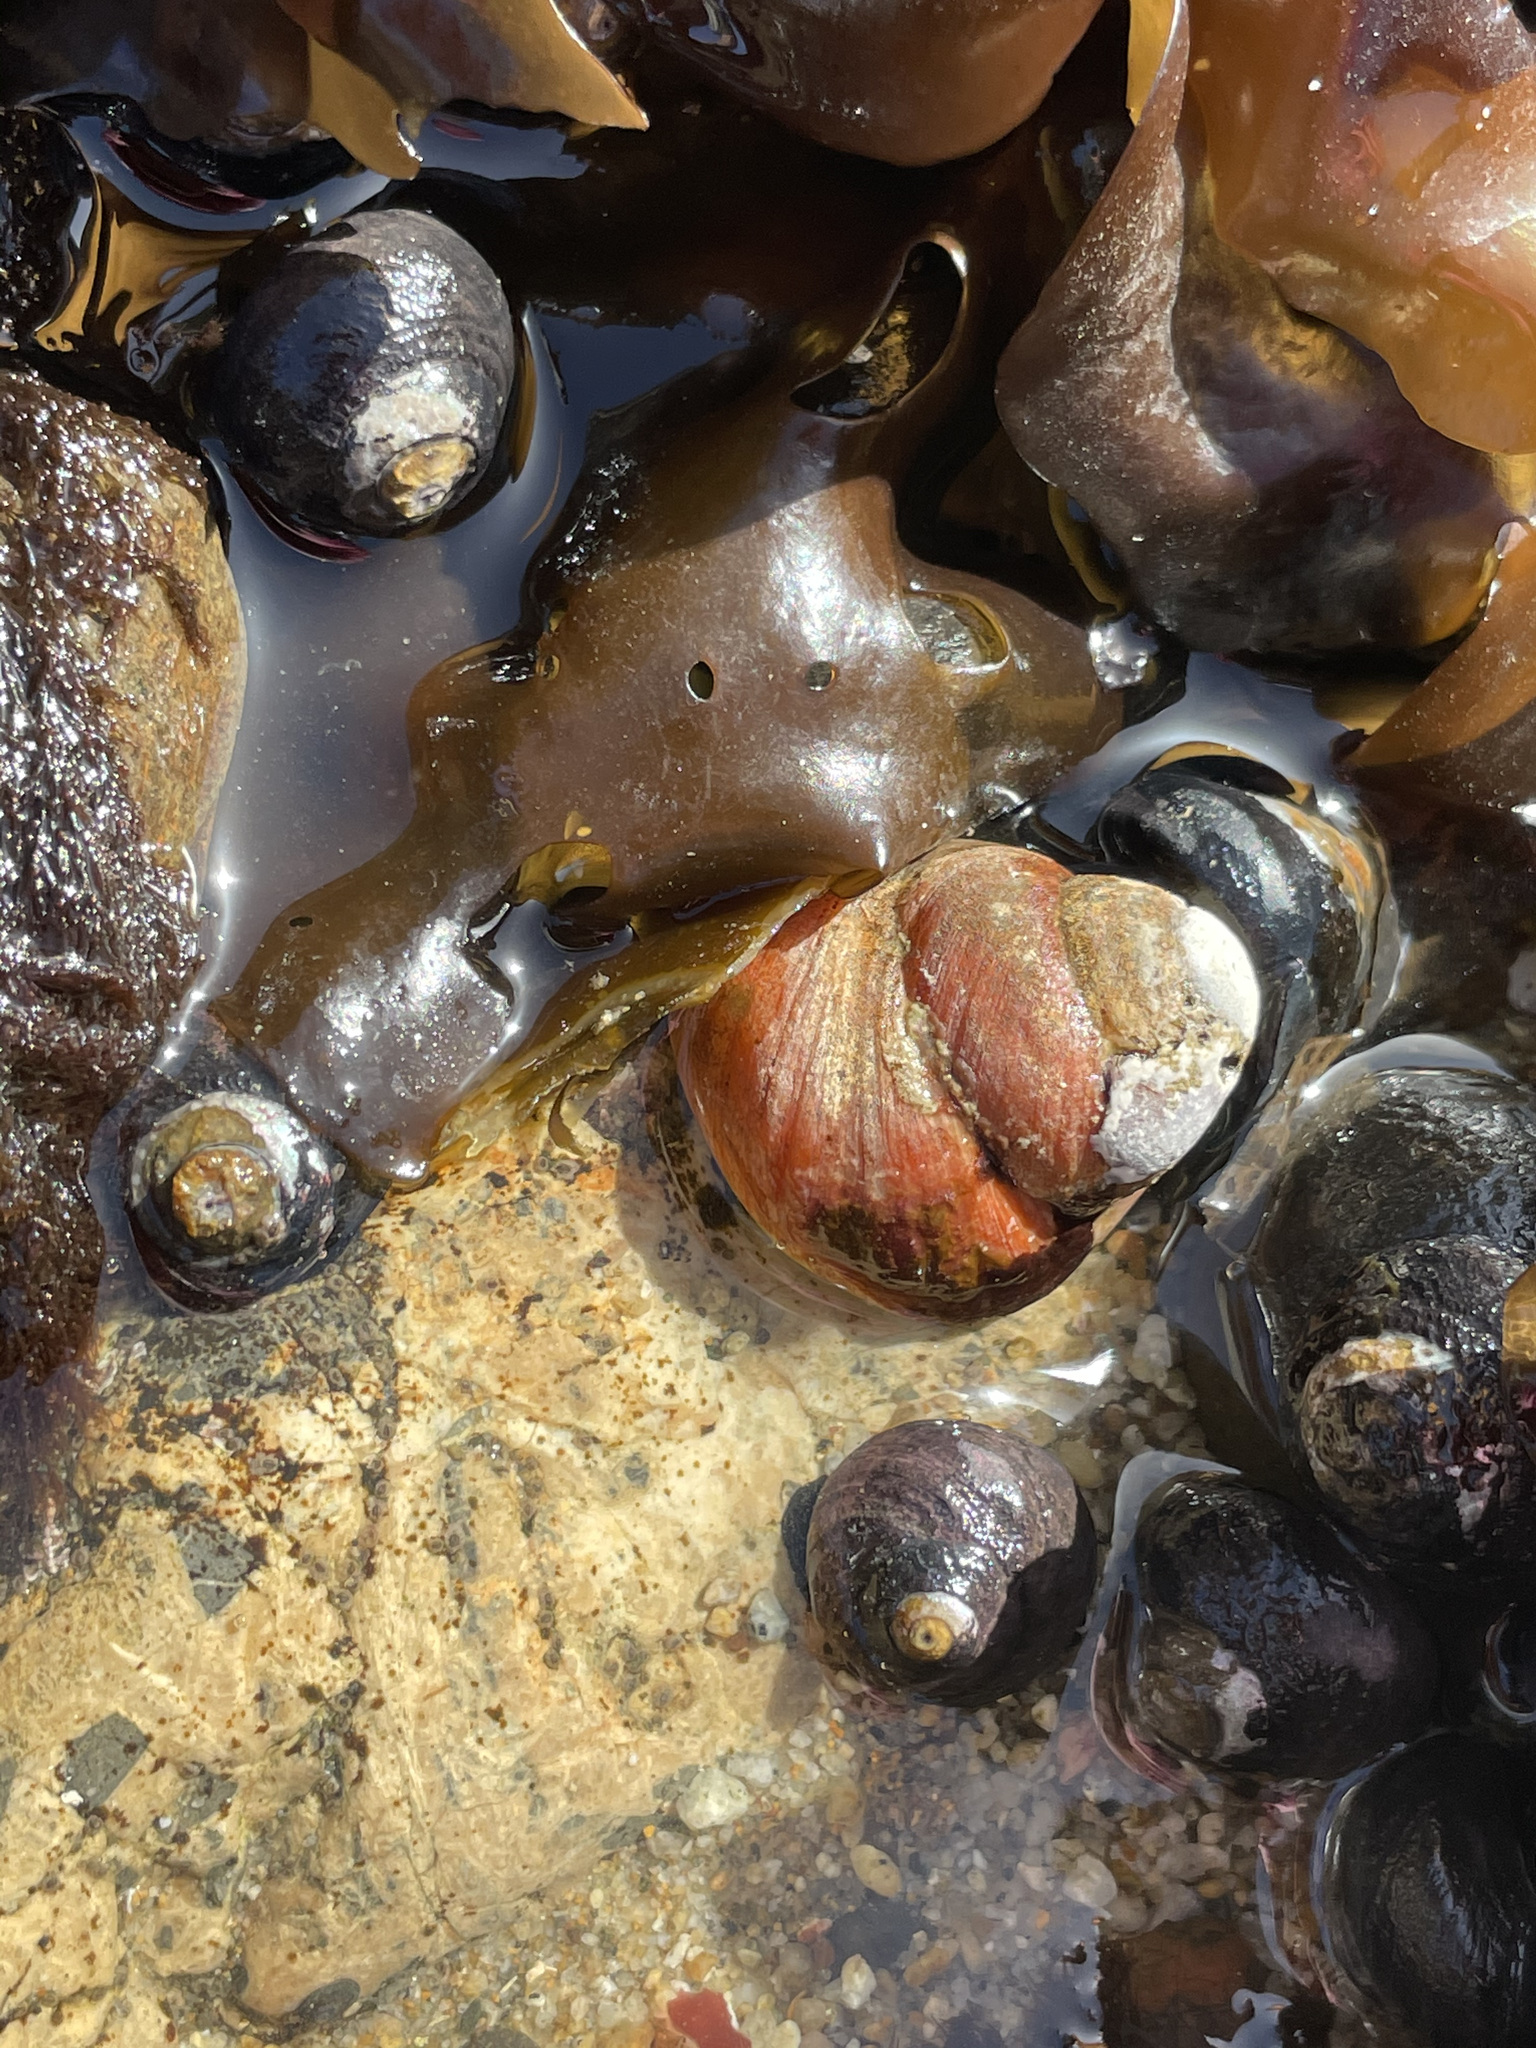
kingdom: Animalia
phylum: Mollusca
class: Gastropoda
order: Trochida
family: Tegulidae
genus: Tegula
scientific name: Tegula brunnea
